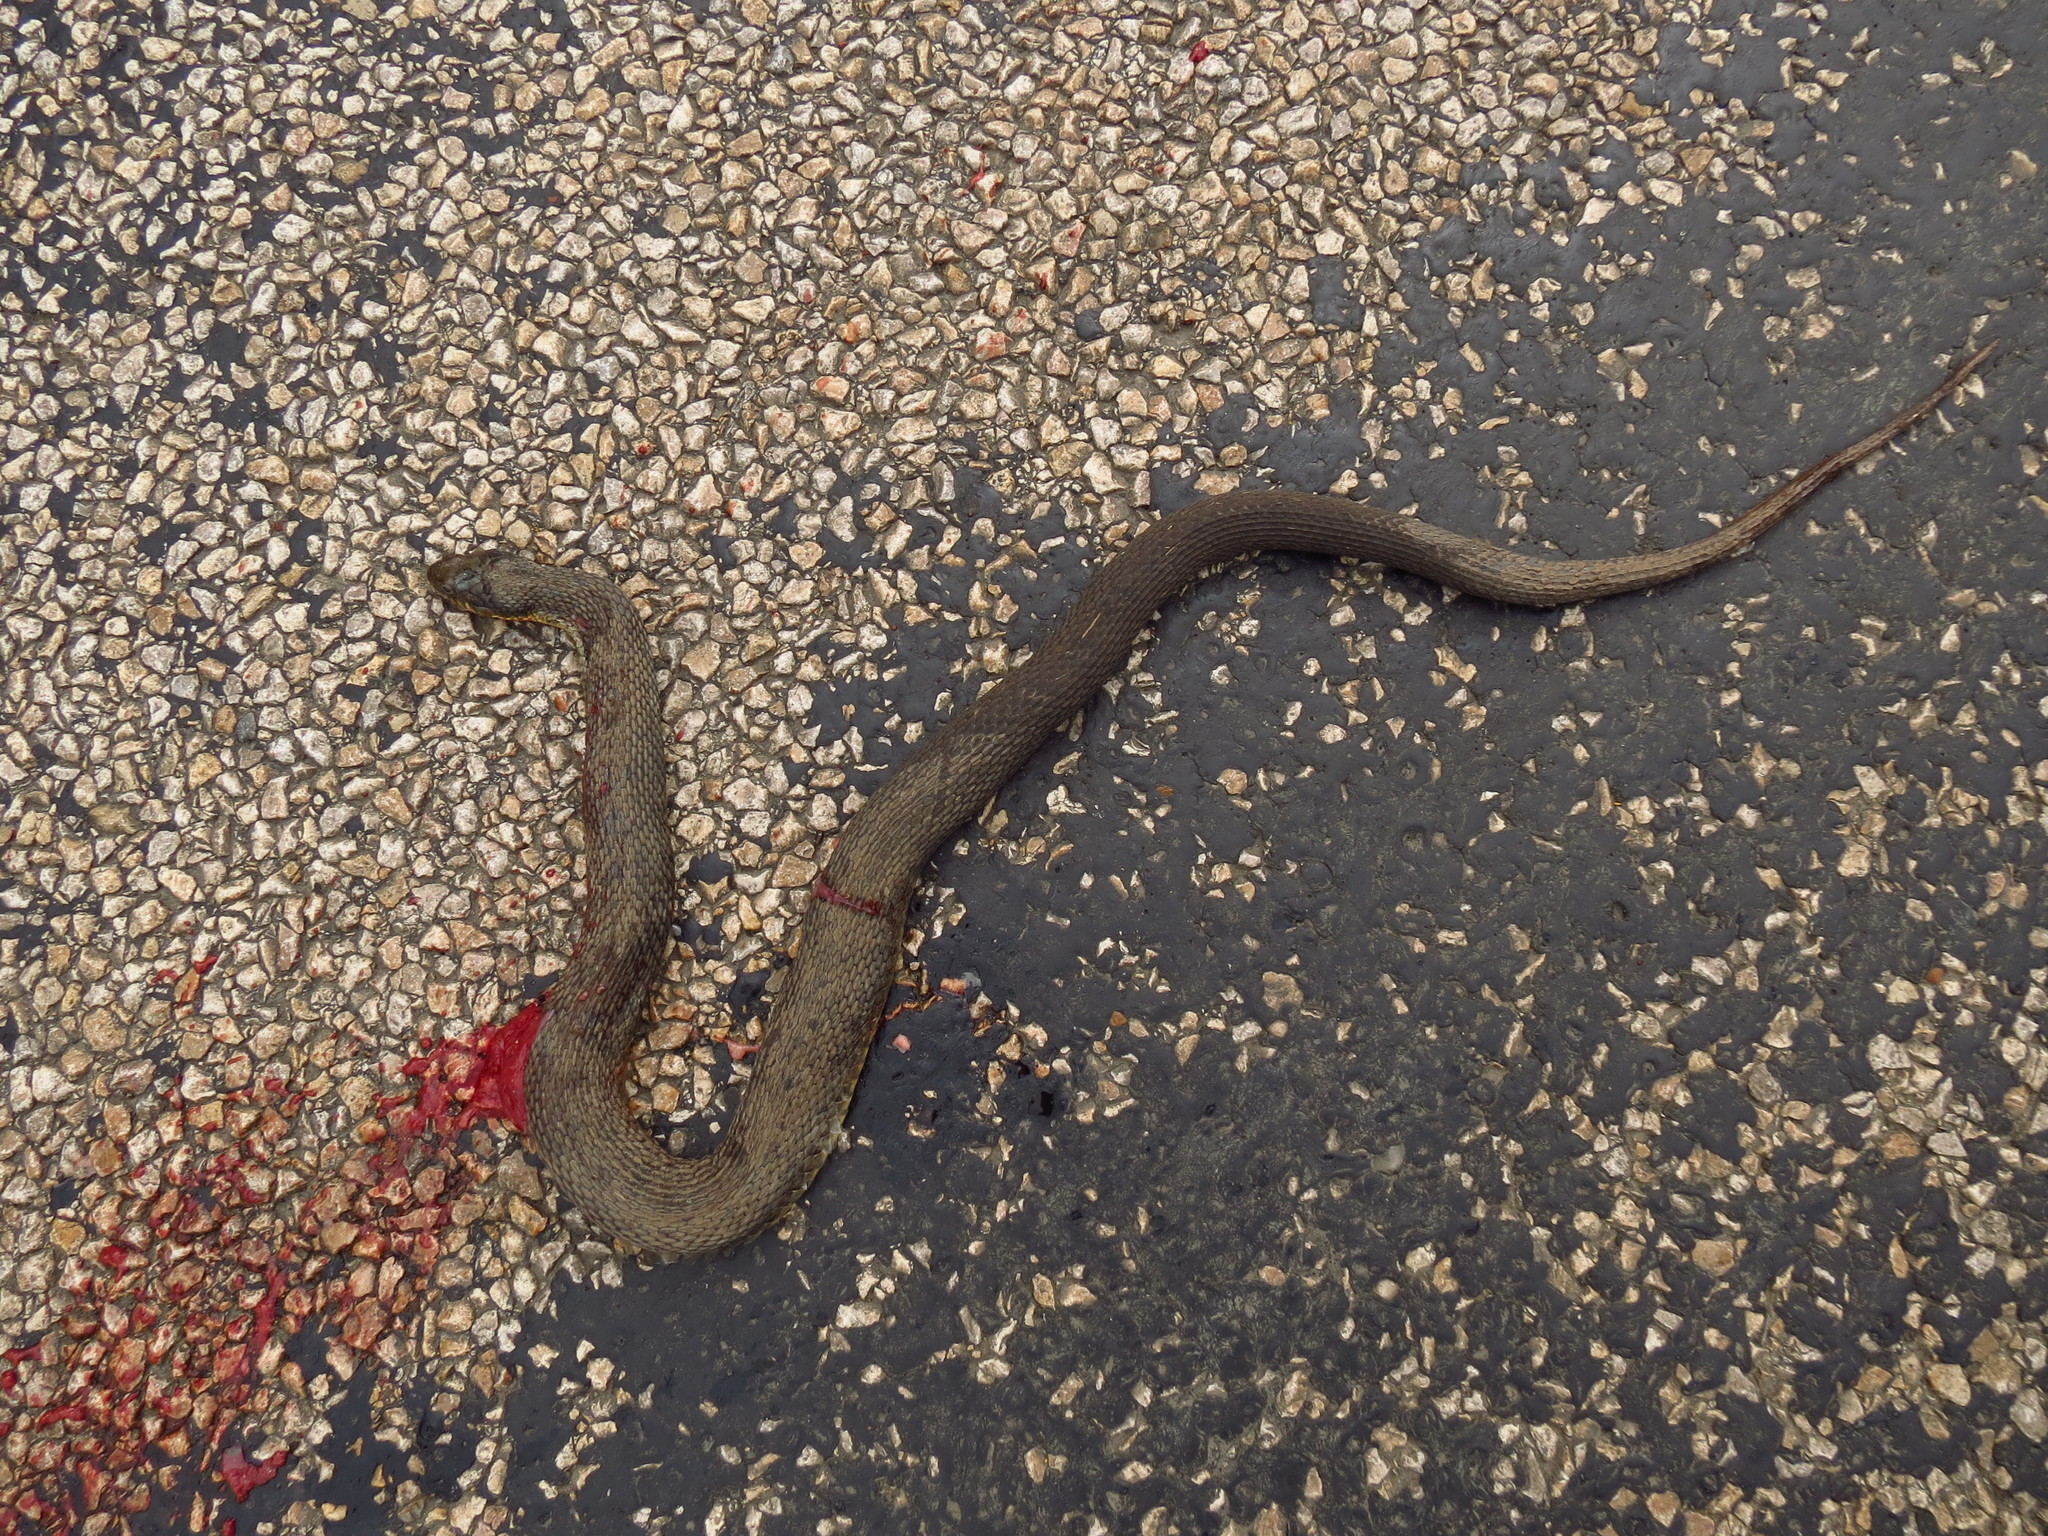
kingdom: Animalia
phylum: Chordata
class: Squamata
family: Colubridae
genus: Nerodia
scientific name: Nerodia erythrogaster
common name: Plainbelly water snake
